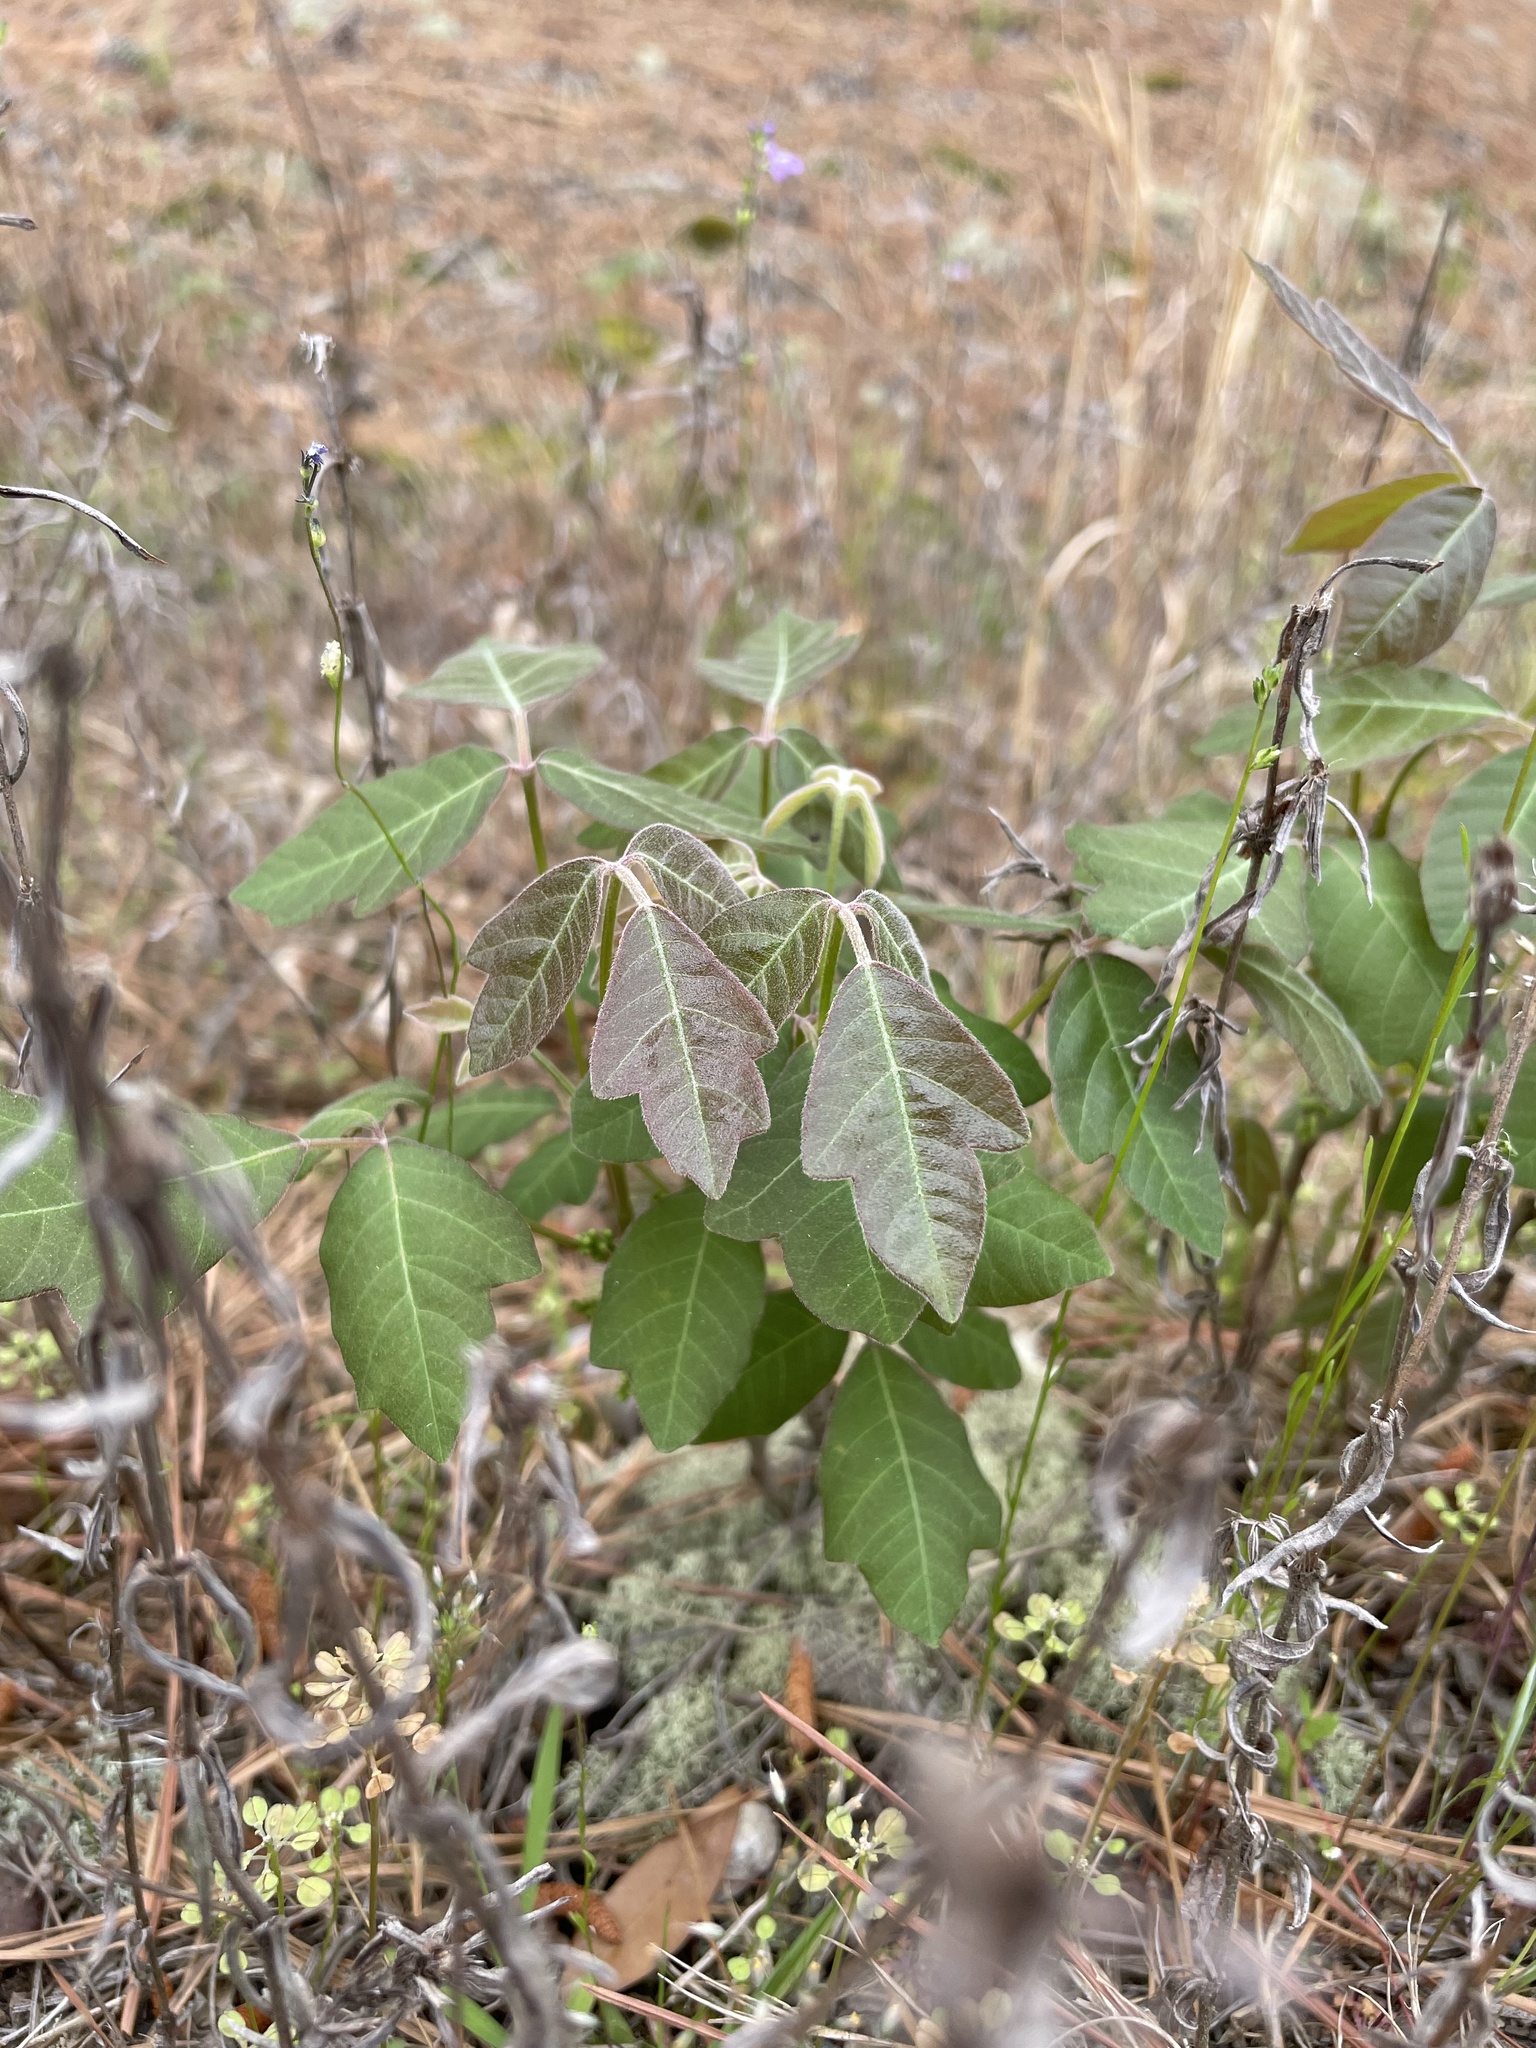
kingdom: Plantae
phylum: Tracheophyta
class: Magnoliopsida
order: Sapindales
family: Anacardiaceae
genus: Toxicodendron
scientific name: Toxicodendron pubescens
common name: Eastern poison-oak
